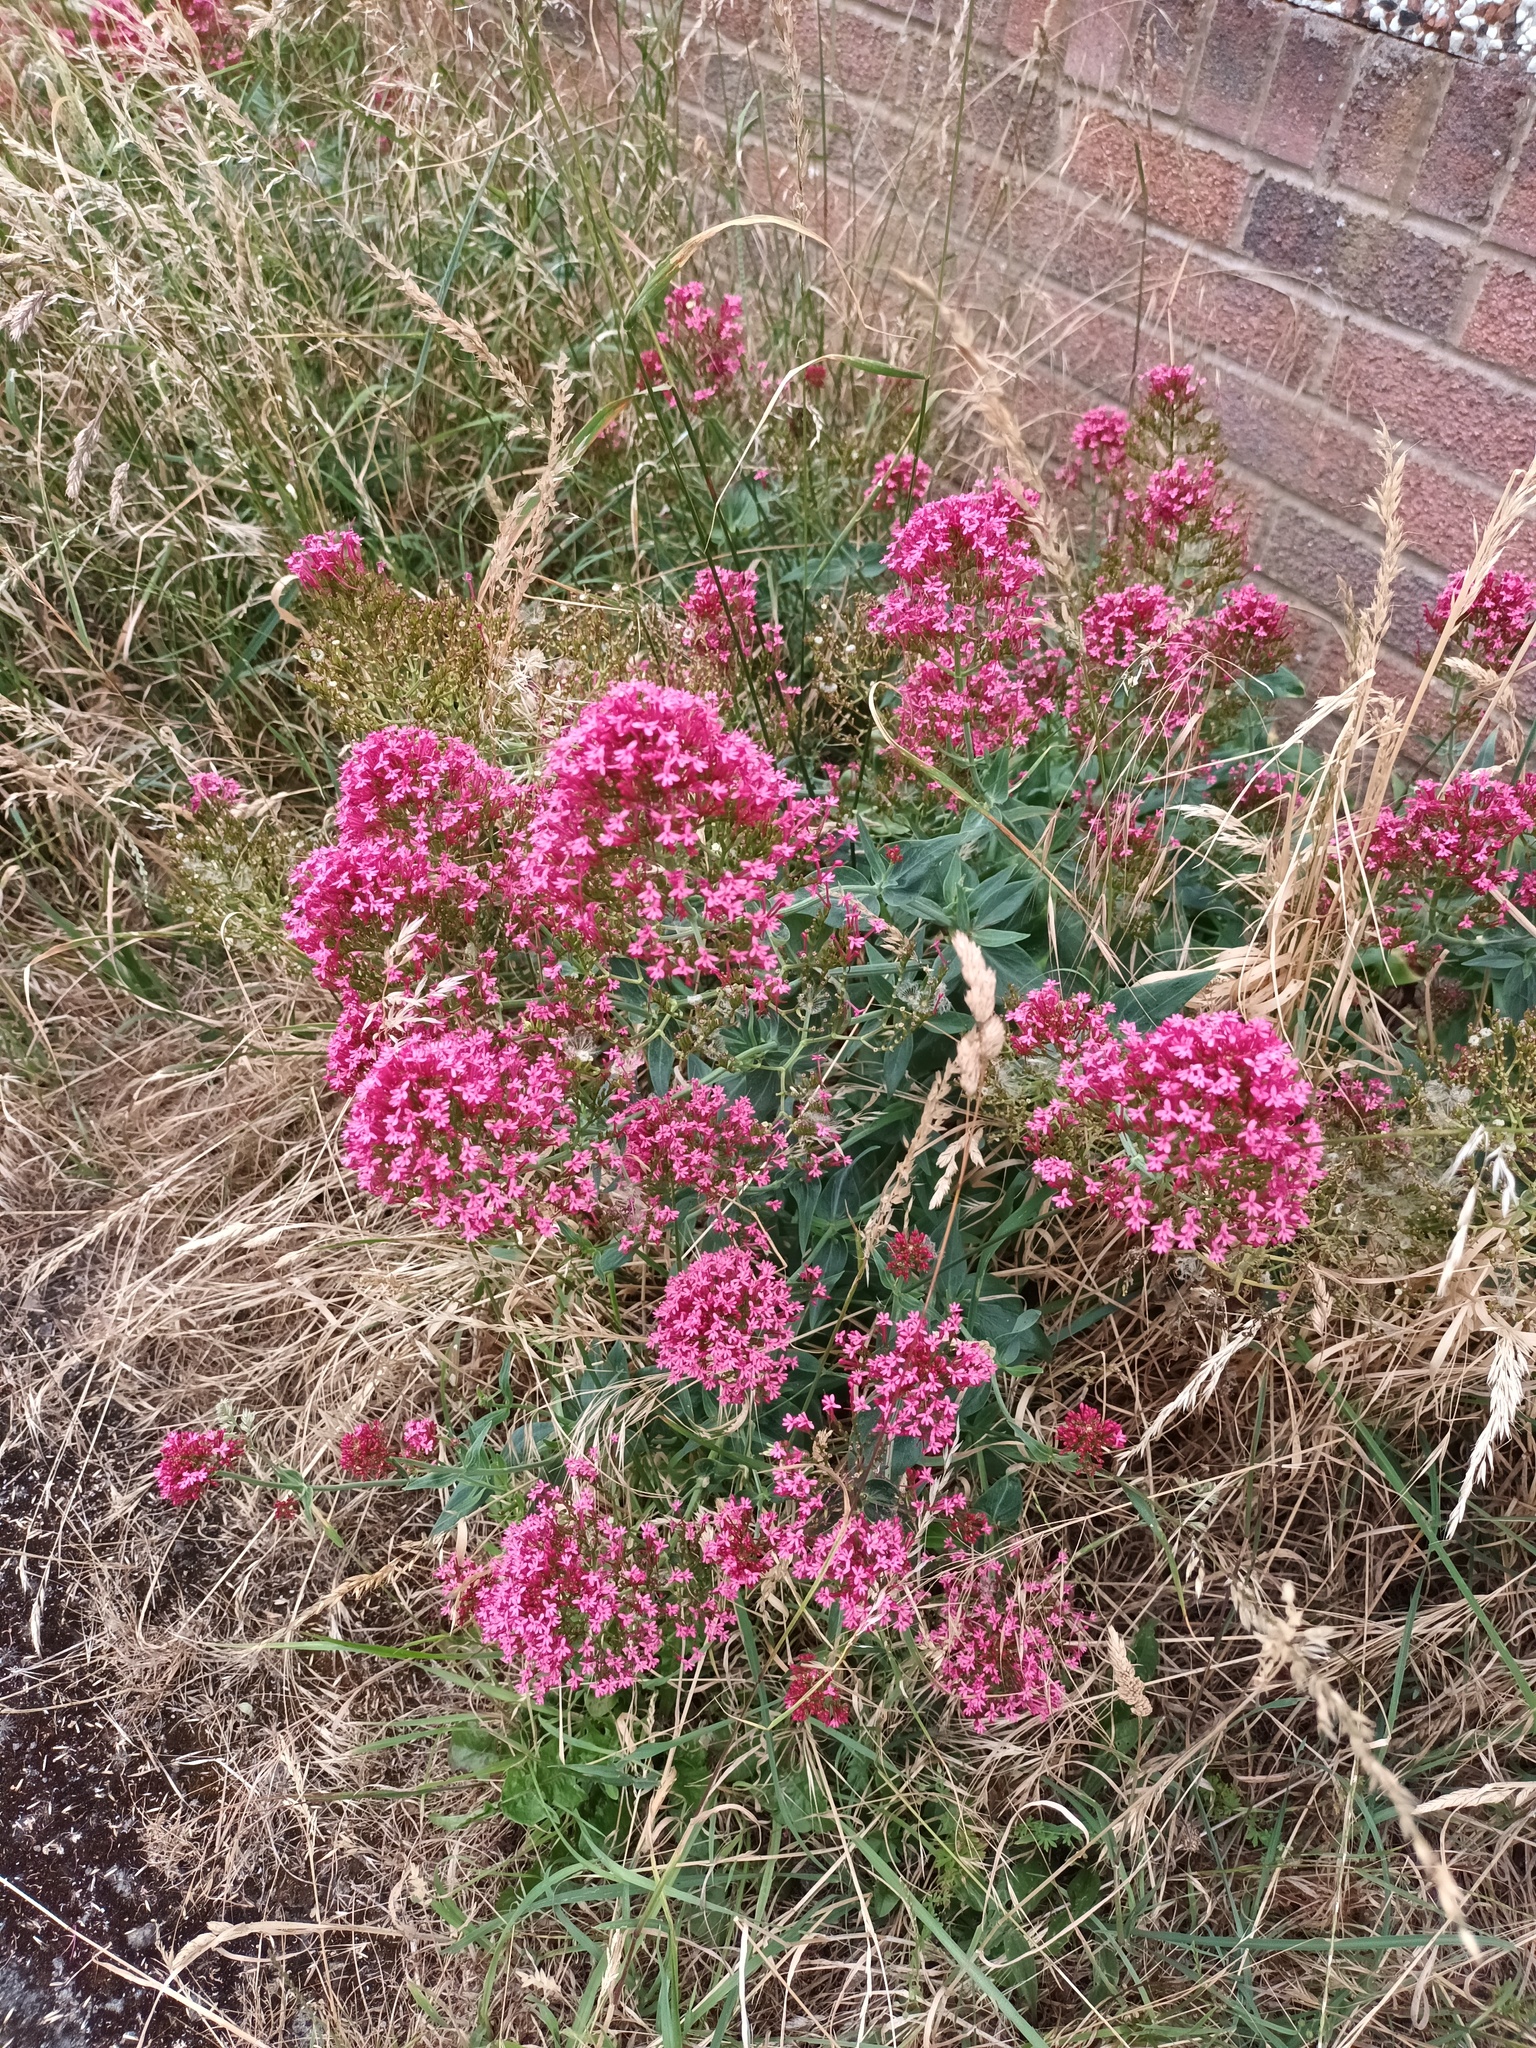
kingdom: Plantae
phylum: Tracheophyta
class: Magnoliopsida
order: Dipsacales
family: Caprifoliaceae
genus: Centranthus
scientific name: Centranthus ruber
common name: Red valerian
